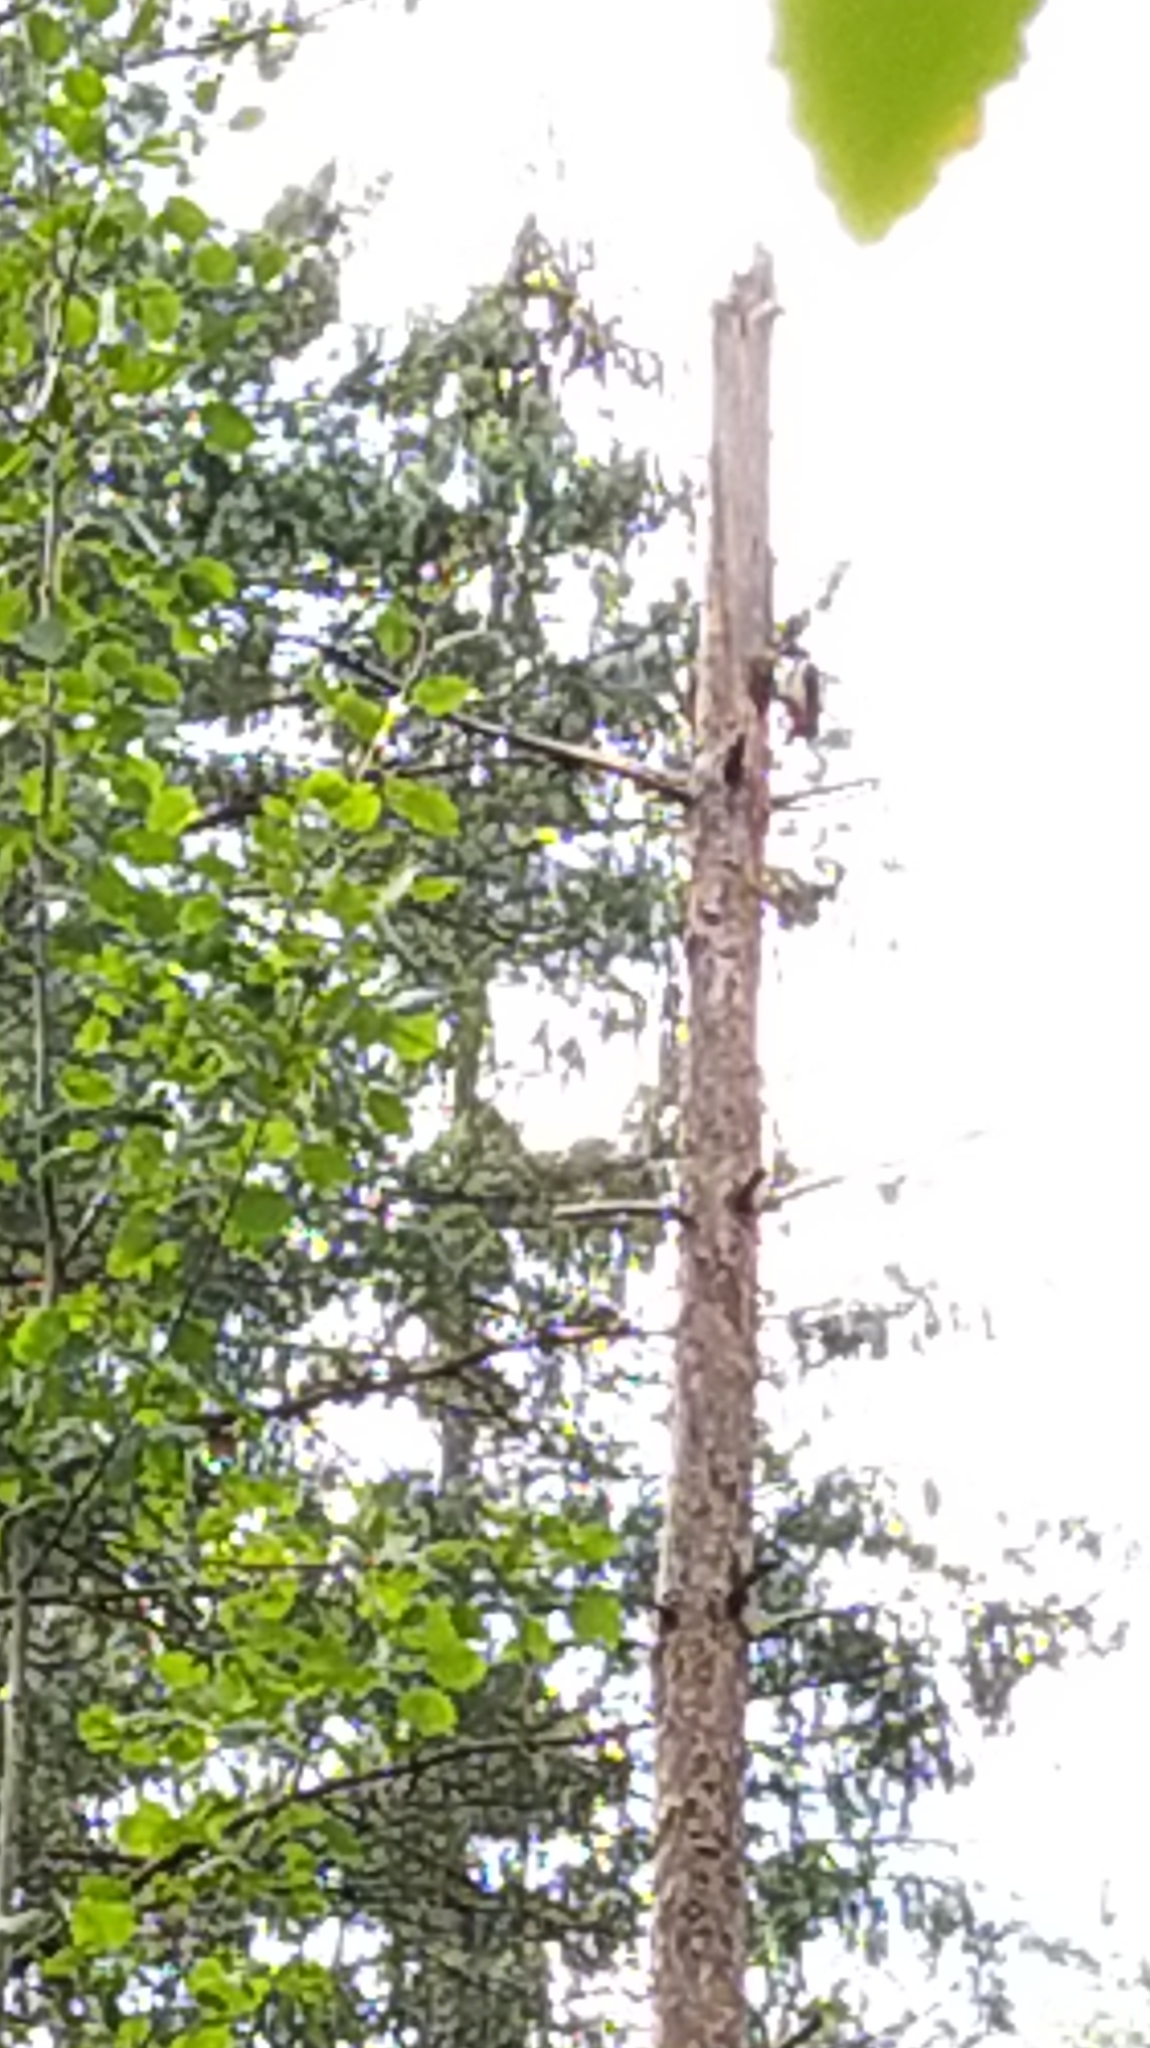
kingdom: Animalia
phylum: Chordata
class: Aves
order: Piciformes
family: Picidae
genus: Dendrocopos
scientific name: Dendrocopos major
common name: Great spotted woodpecker
